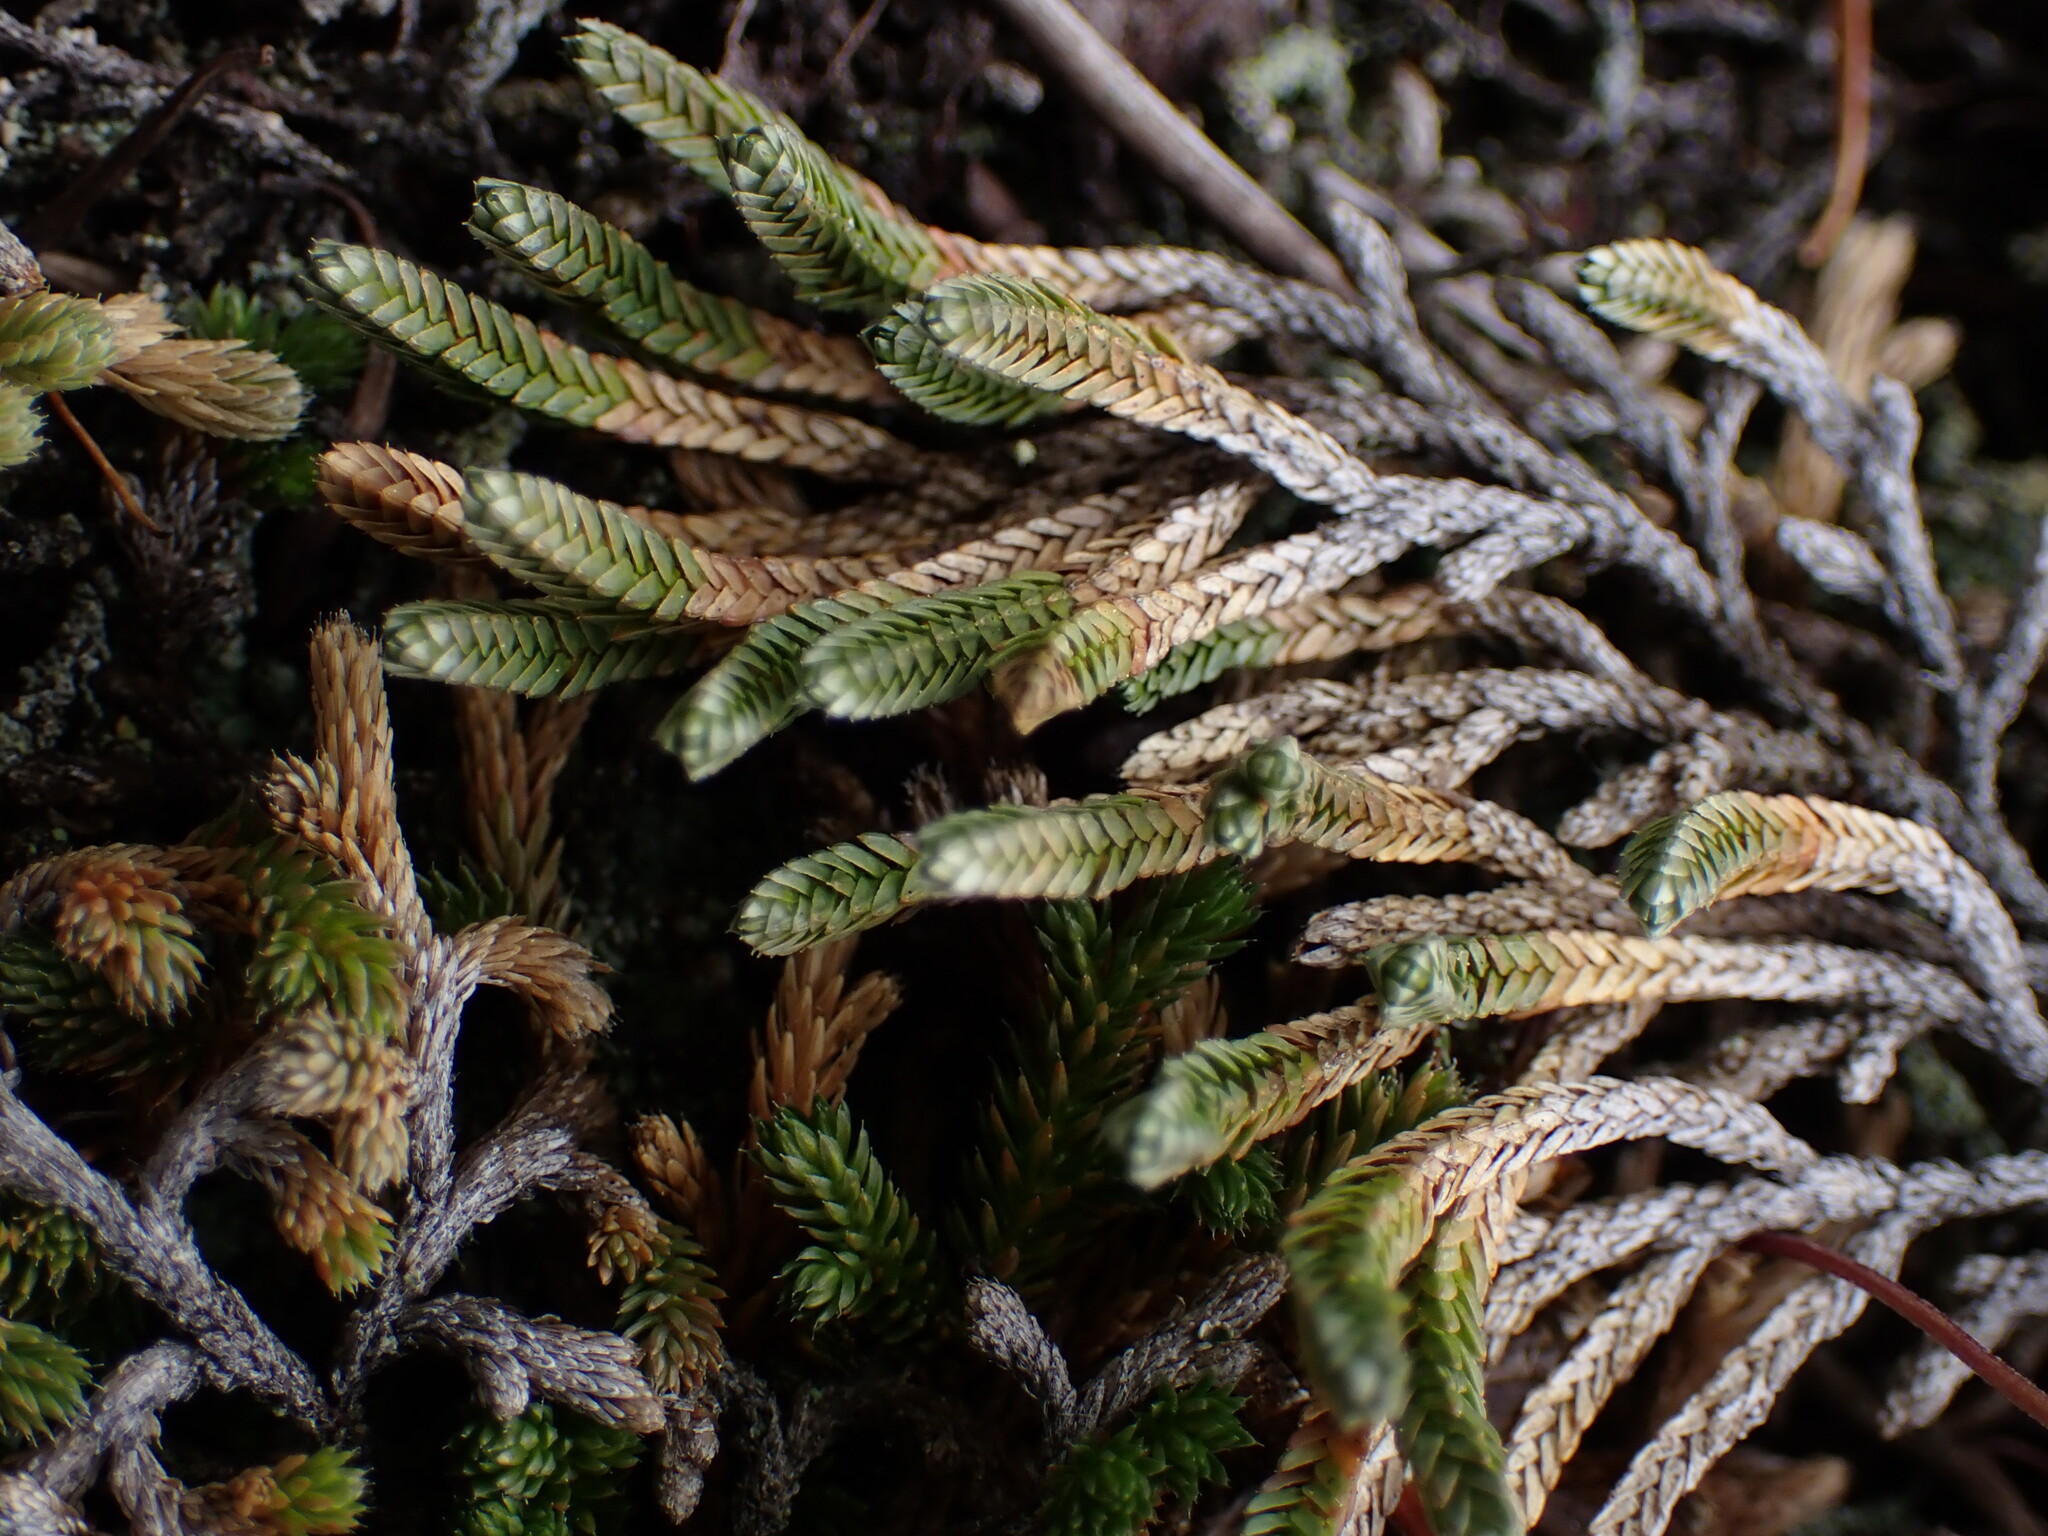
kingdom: Plantae
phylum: Tracheophyta
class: Lycopodiopsida
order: Selaginellales
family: Selaginellaceae
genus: Selaginella
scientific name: Selaginella wallacei
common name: Wallace's selaginella
